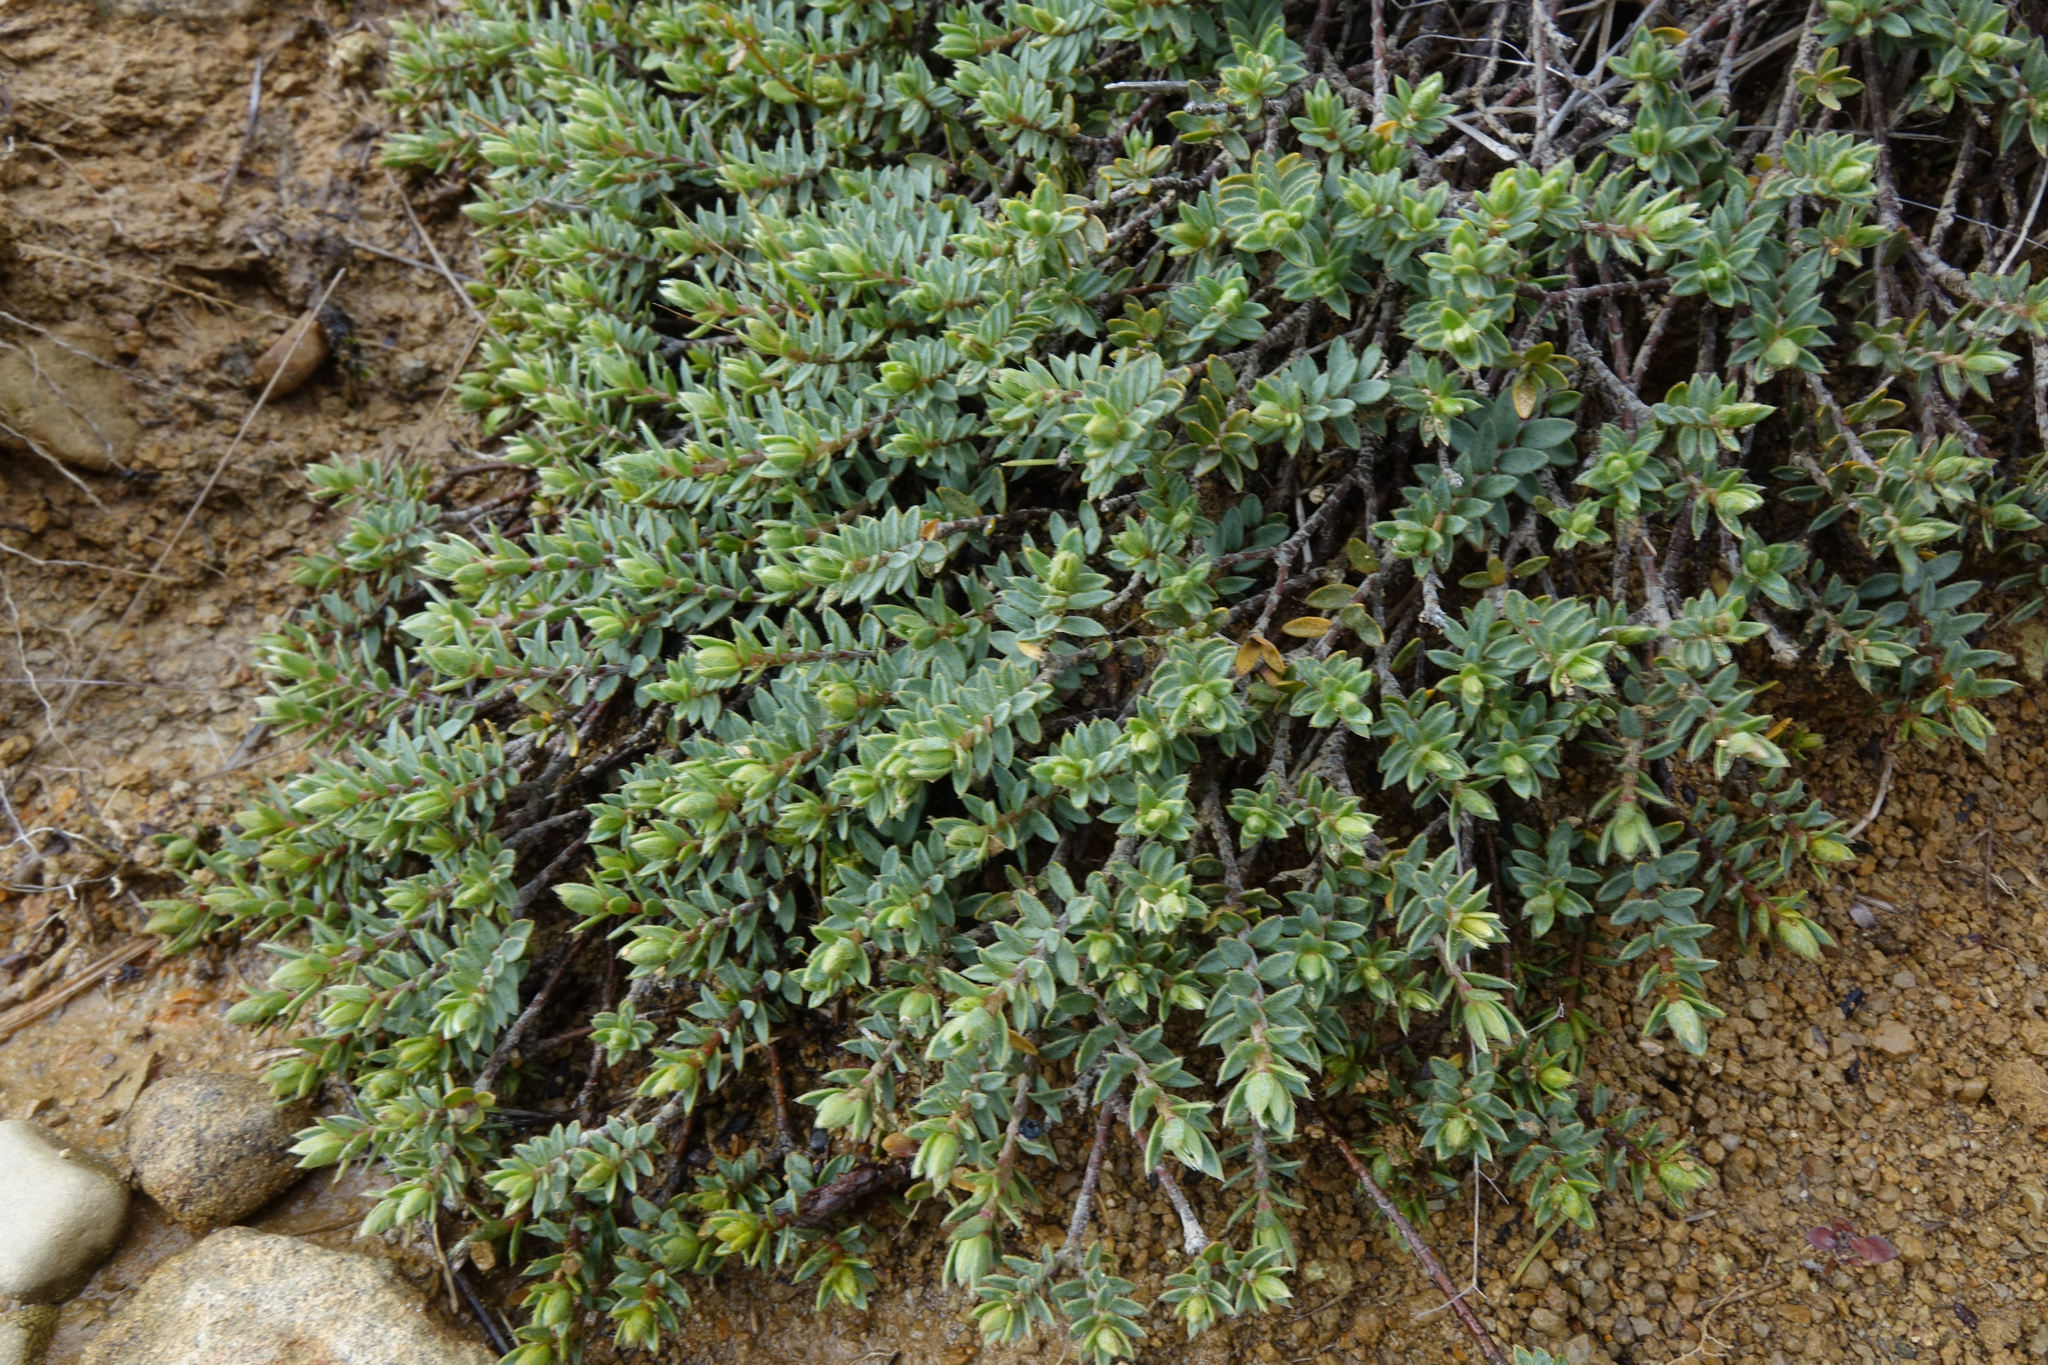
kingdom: Plantae
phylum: Tracheophyta
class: Magnoliopsida
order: Malvales
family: Thymelaeaceae
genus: Pimelea
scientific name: Pimelea oreophila
